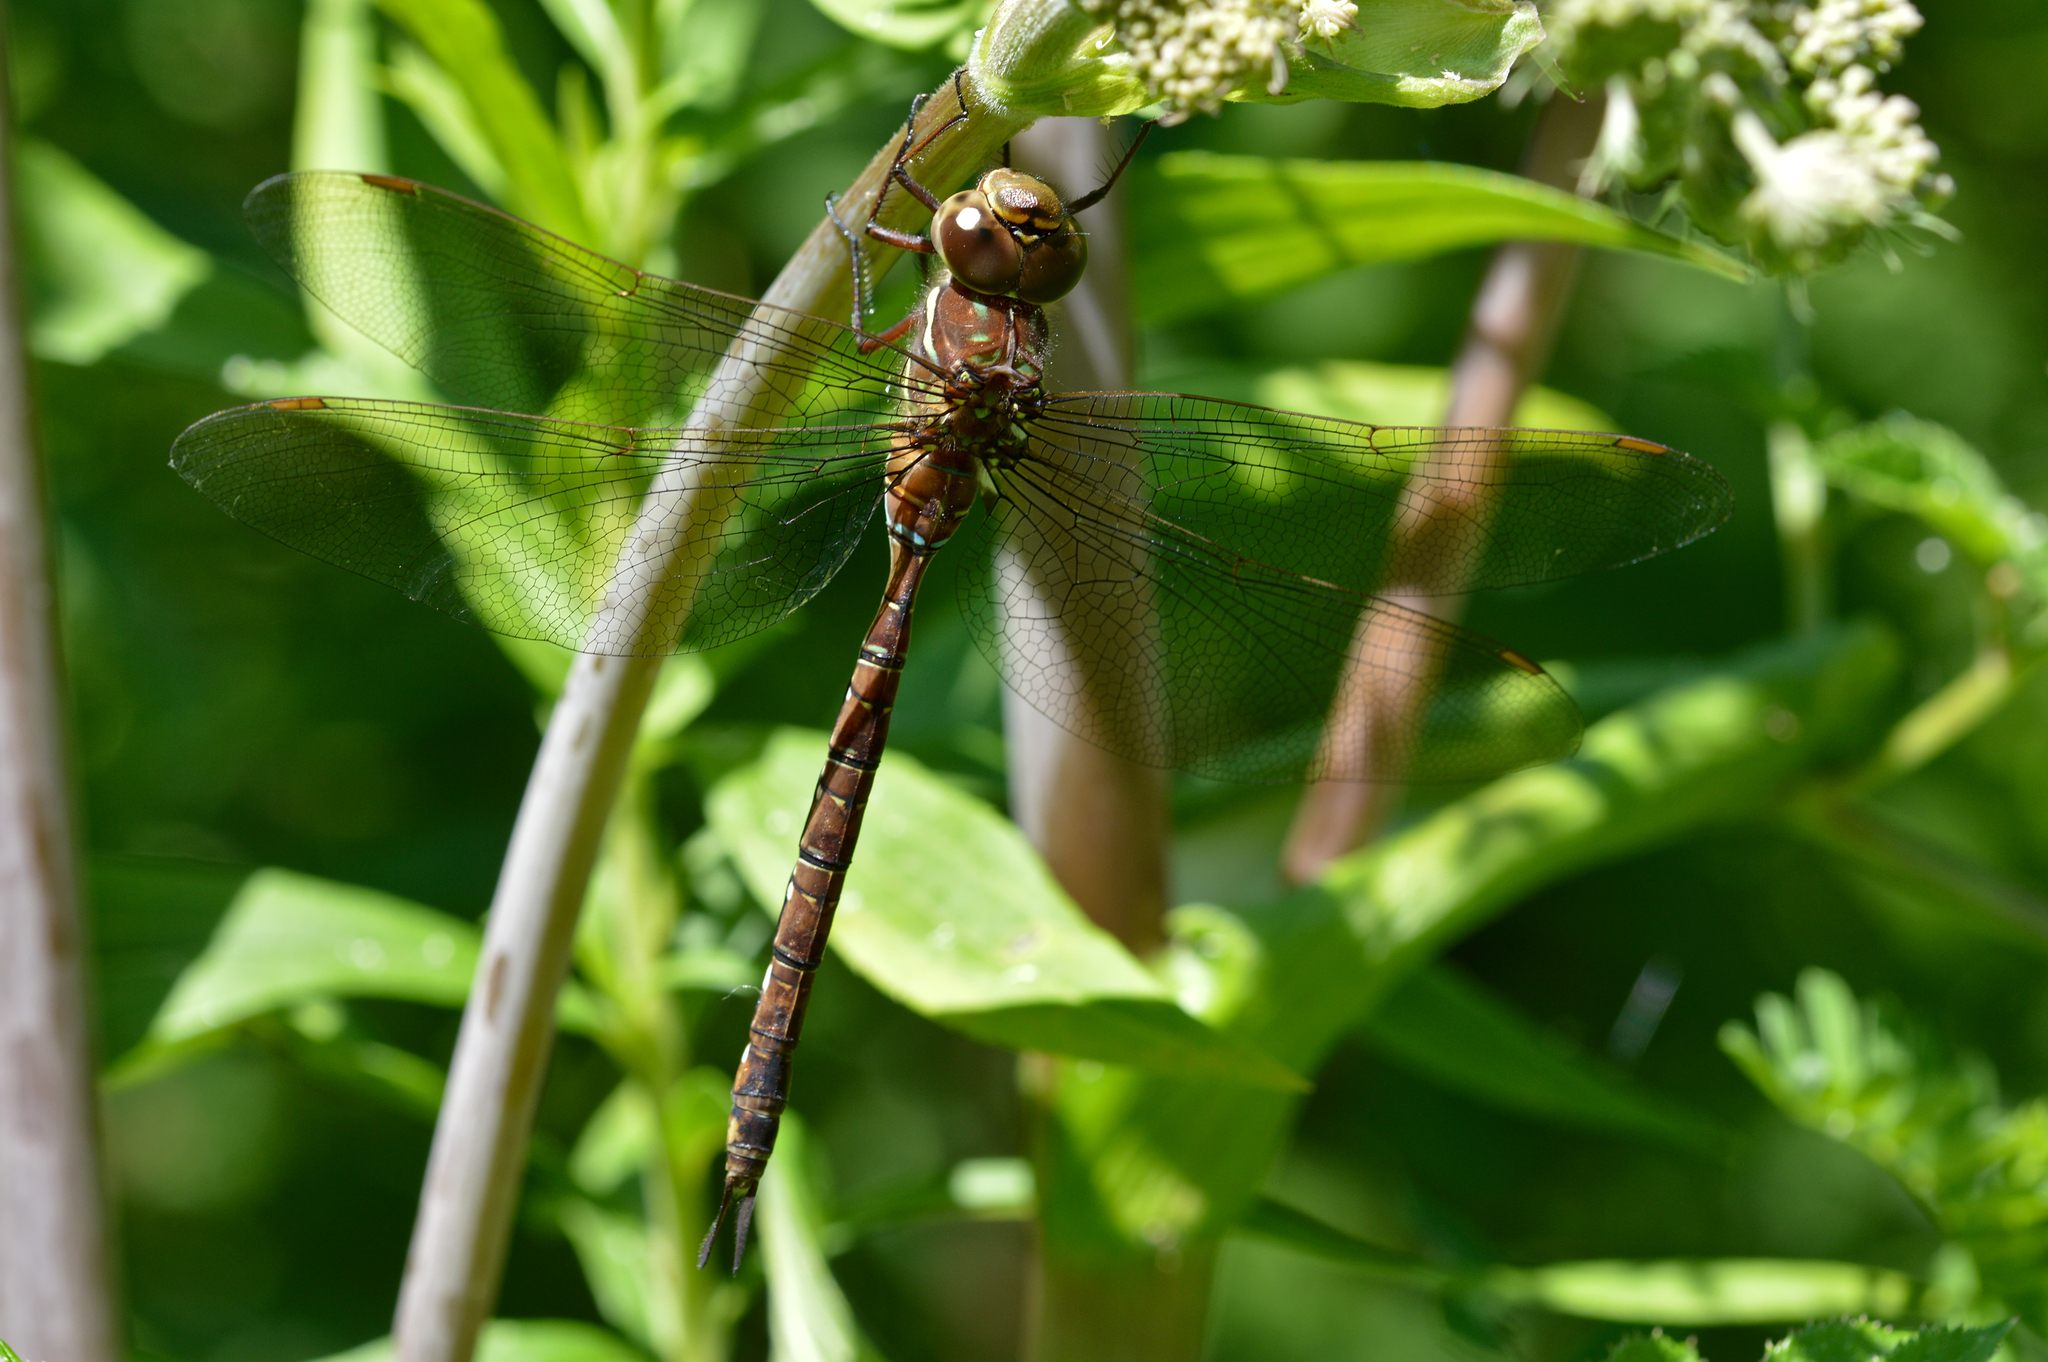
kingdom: Animalia
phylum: Arthropoda
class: Insecta
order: Odonata
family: Aeshnidae
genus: Aeshna
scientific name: Aeshna umbrosa
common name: Shadow darner
